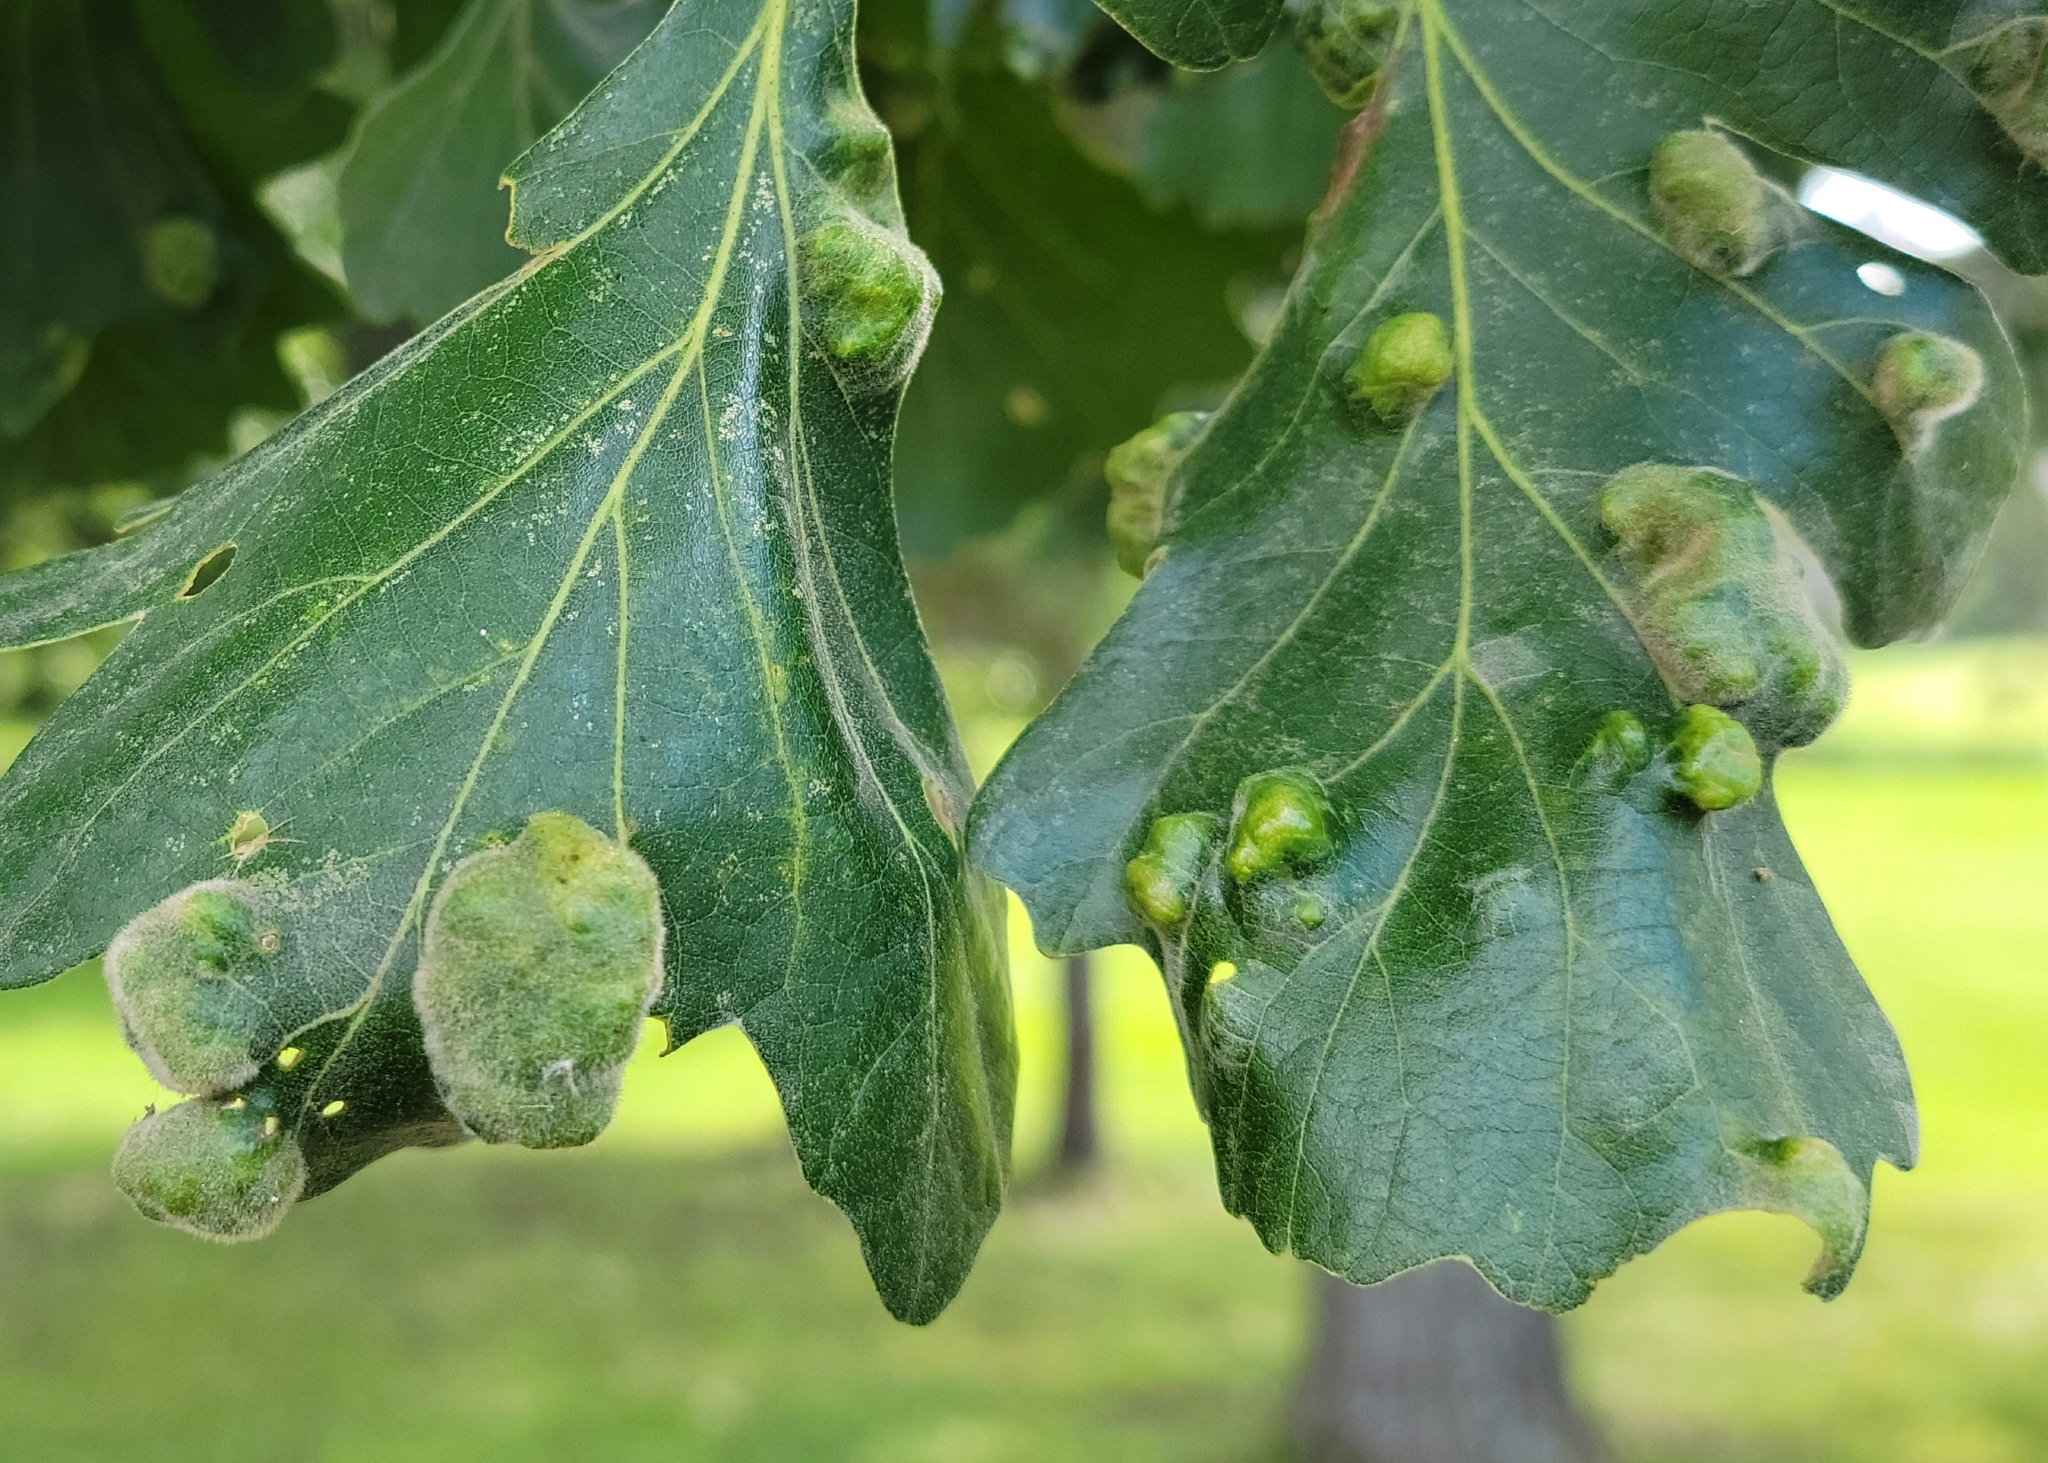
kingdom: Animalia
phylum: Arthropoda
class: Arachnida
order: Trombidiformes
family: Eriophyidae
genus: Aceria
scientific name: Aceria quercina
